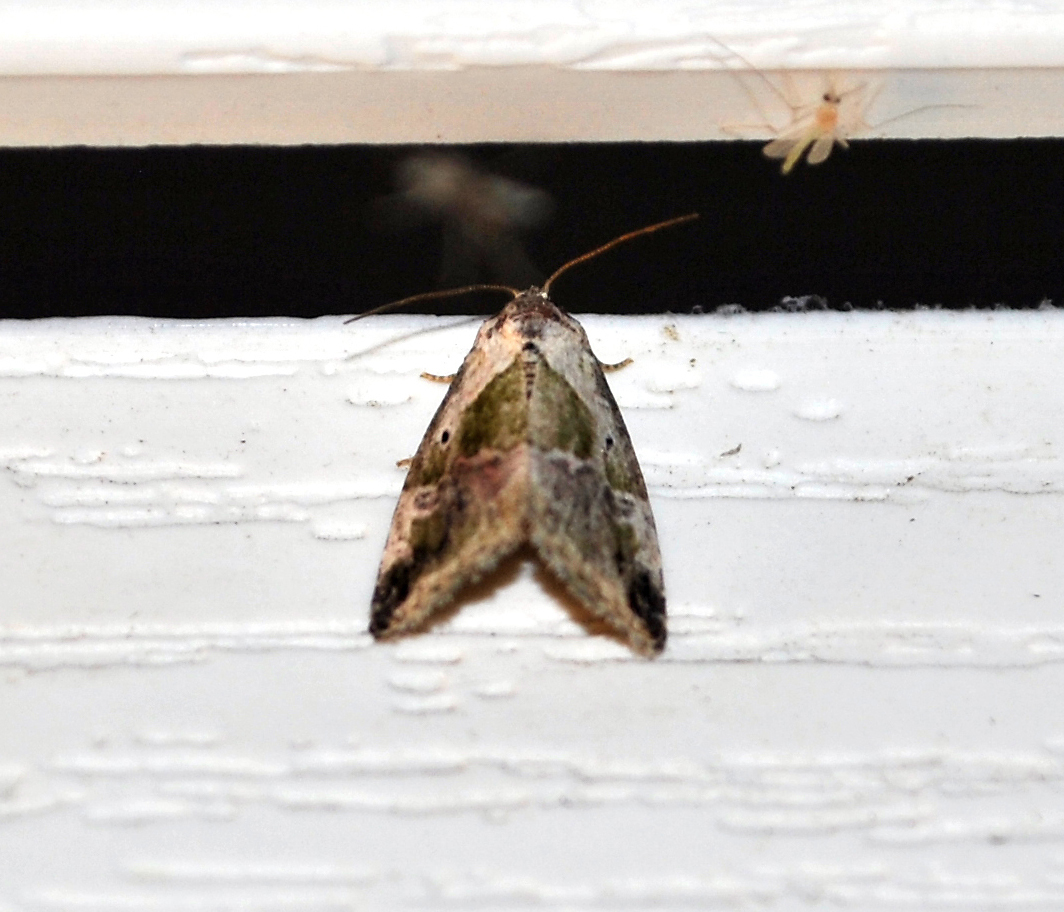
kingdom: Animalia
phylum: Arthropoda
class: Insecta
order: Lepidoptera
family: Noctuidae
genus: Maliattha
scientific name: Maliattha synochitis
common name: Black-dotted glyph
